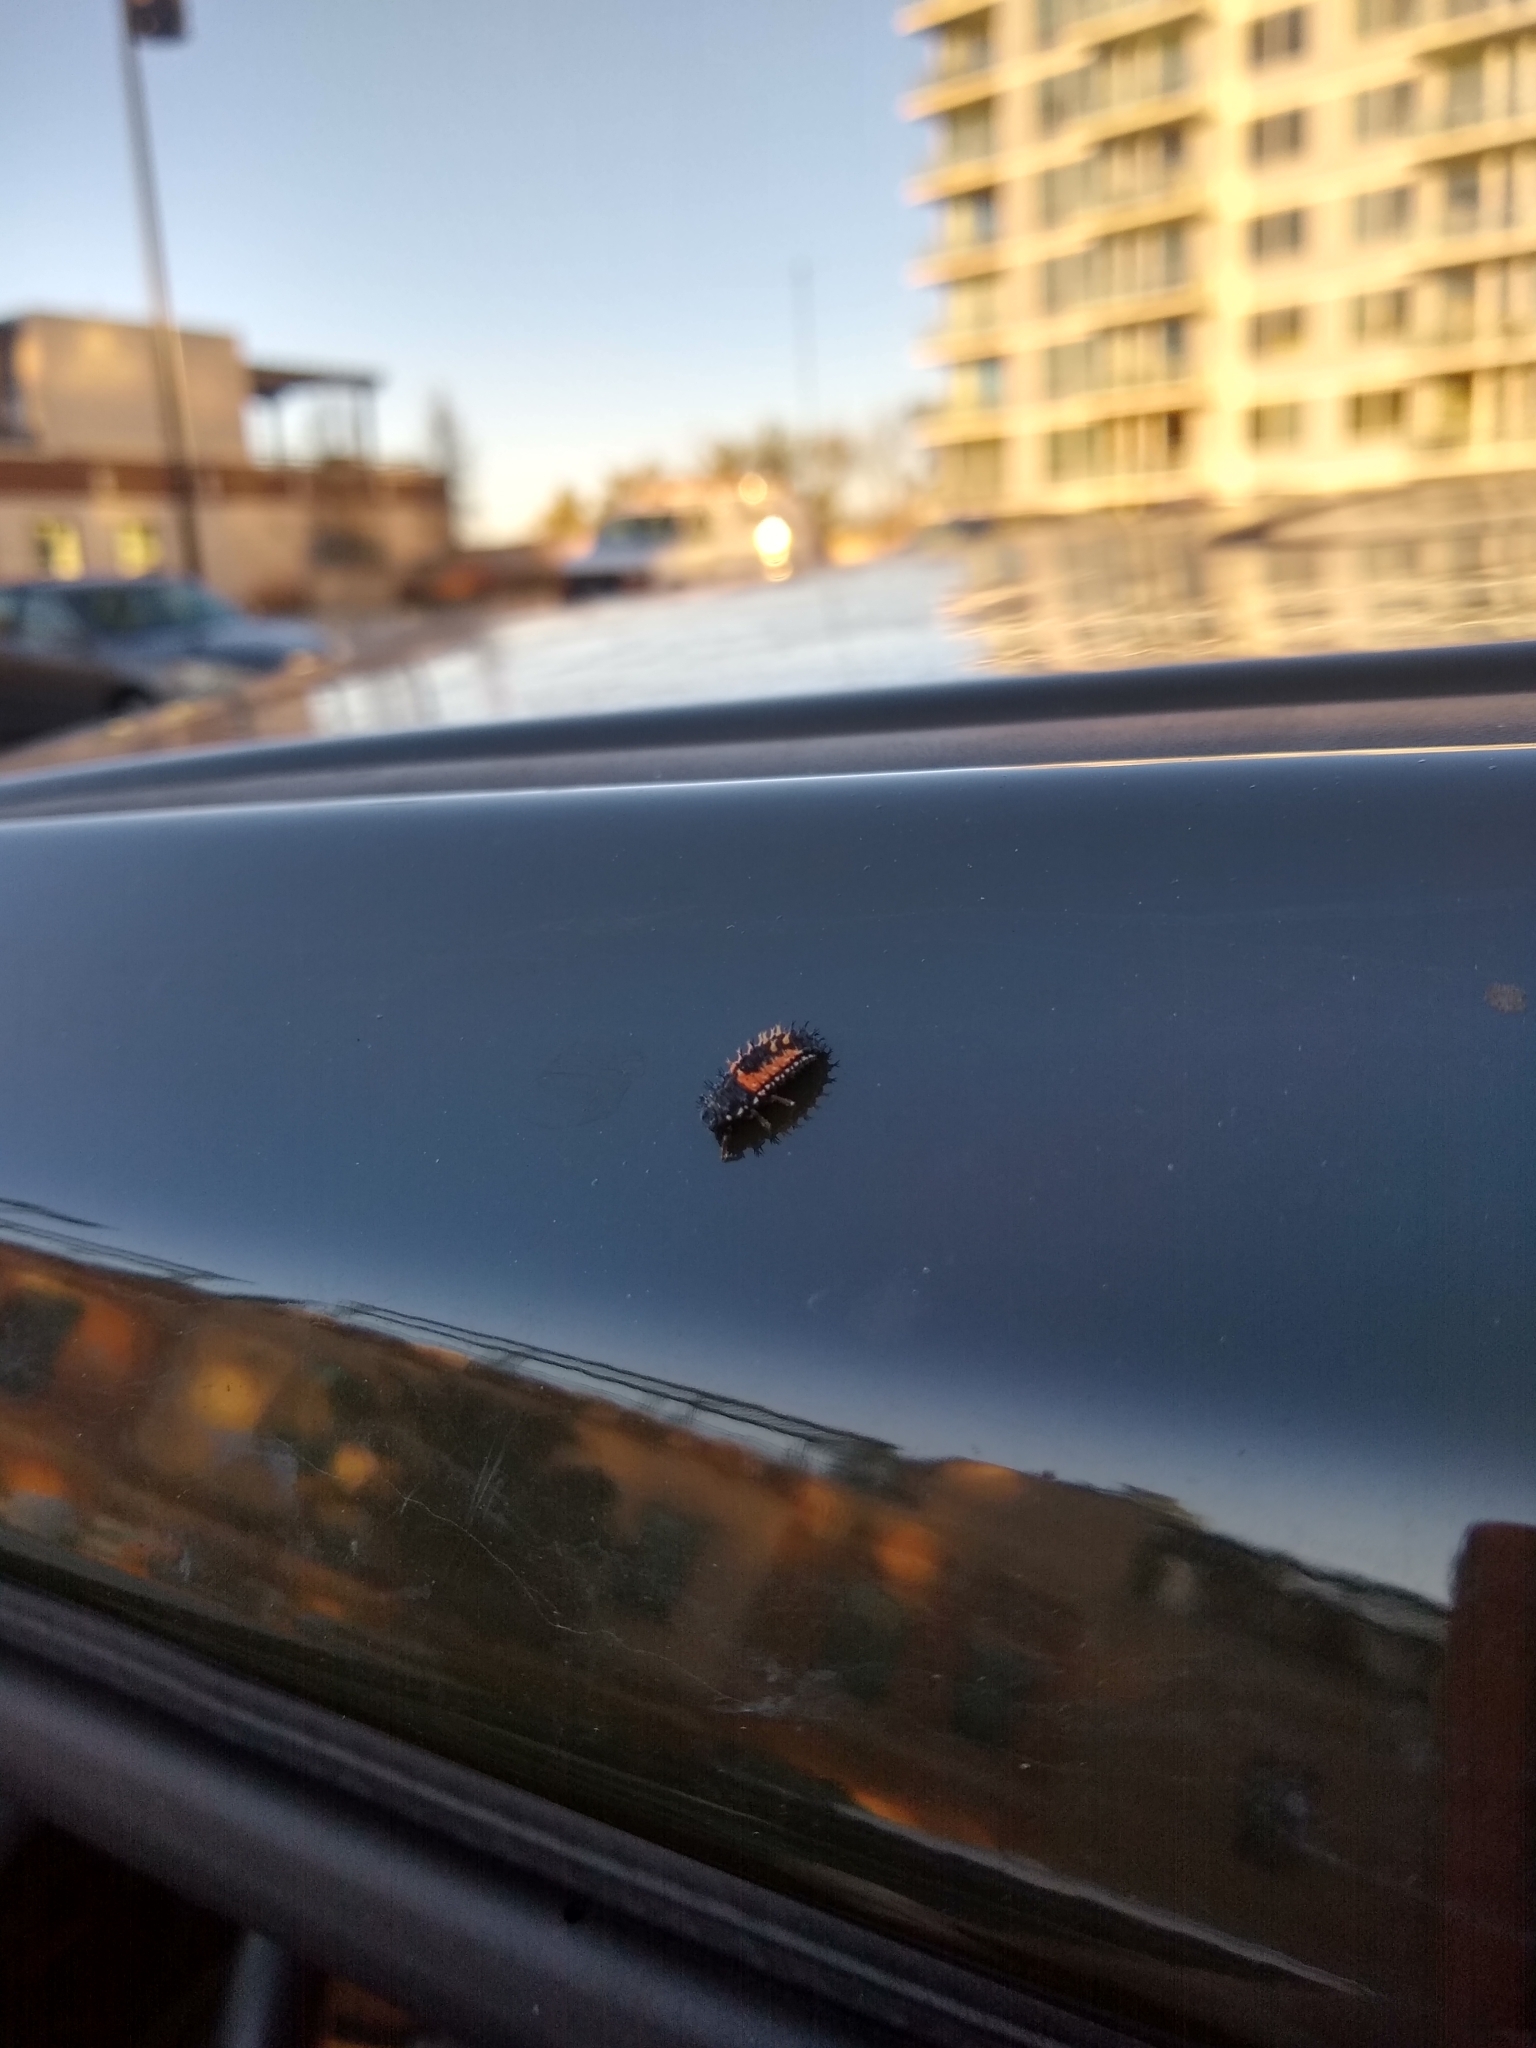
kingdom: Animalia
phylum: Arthropoda
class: Insecta
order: Coleoptera
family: Coccinellidae
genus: Harmonia
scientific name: Harmonia axyridis
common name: Harlequin ladybird
